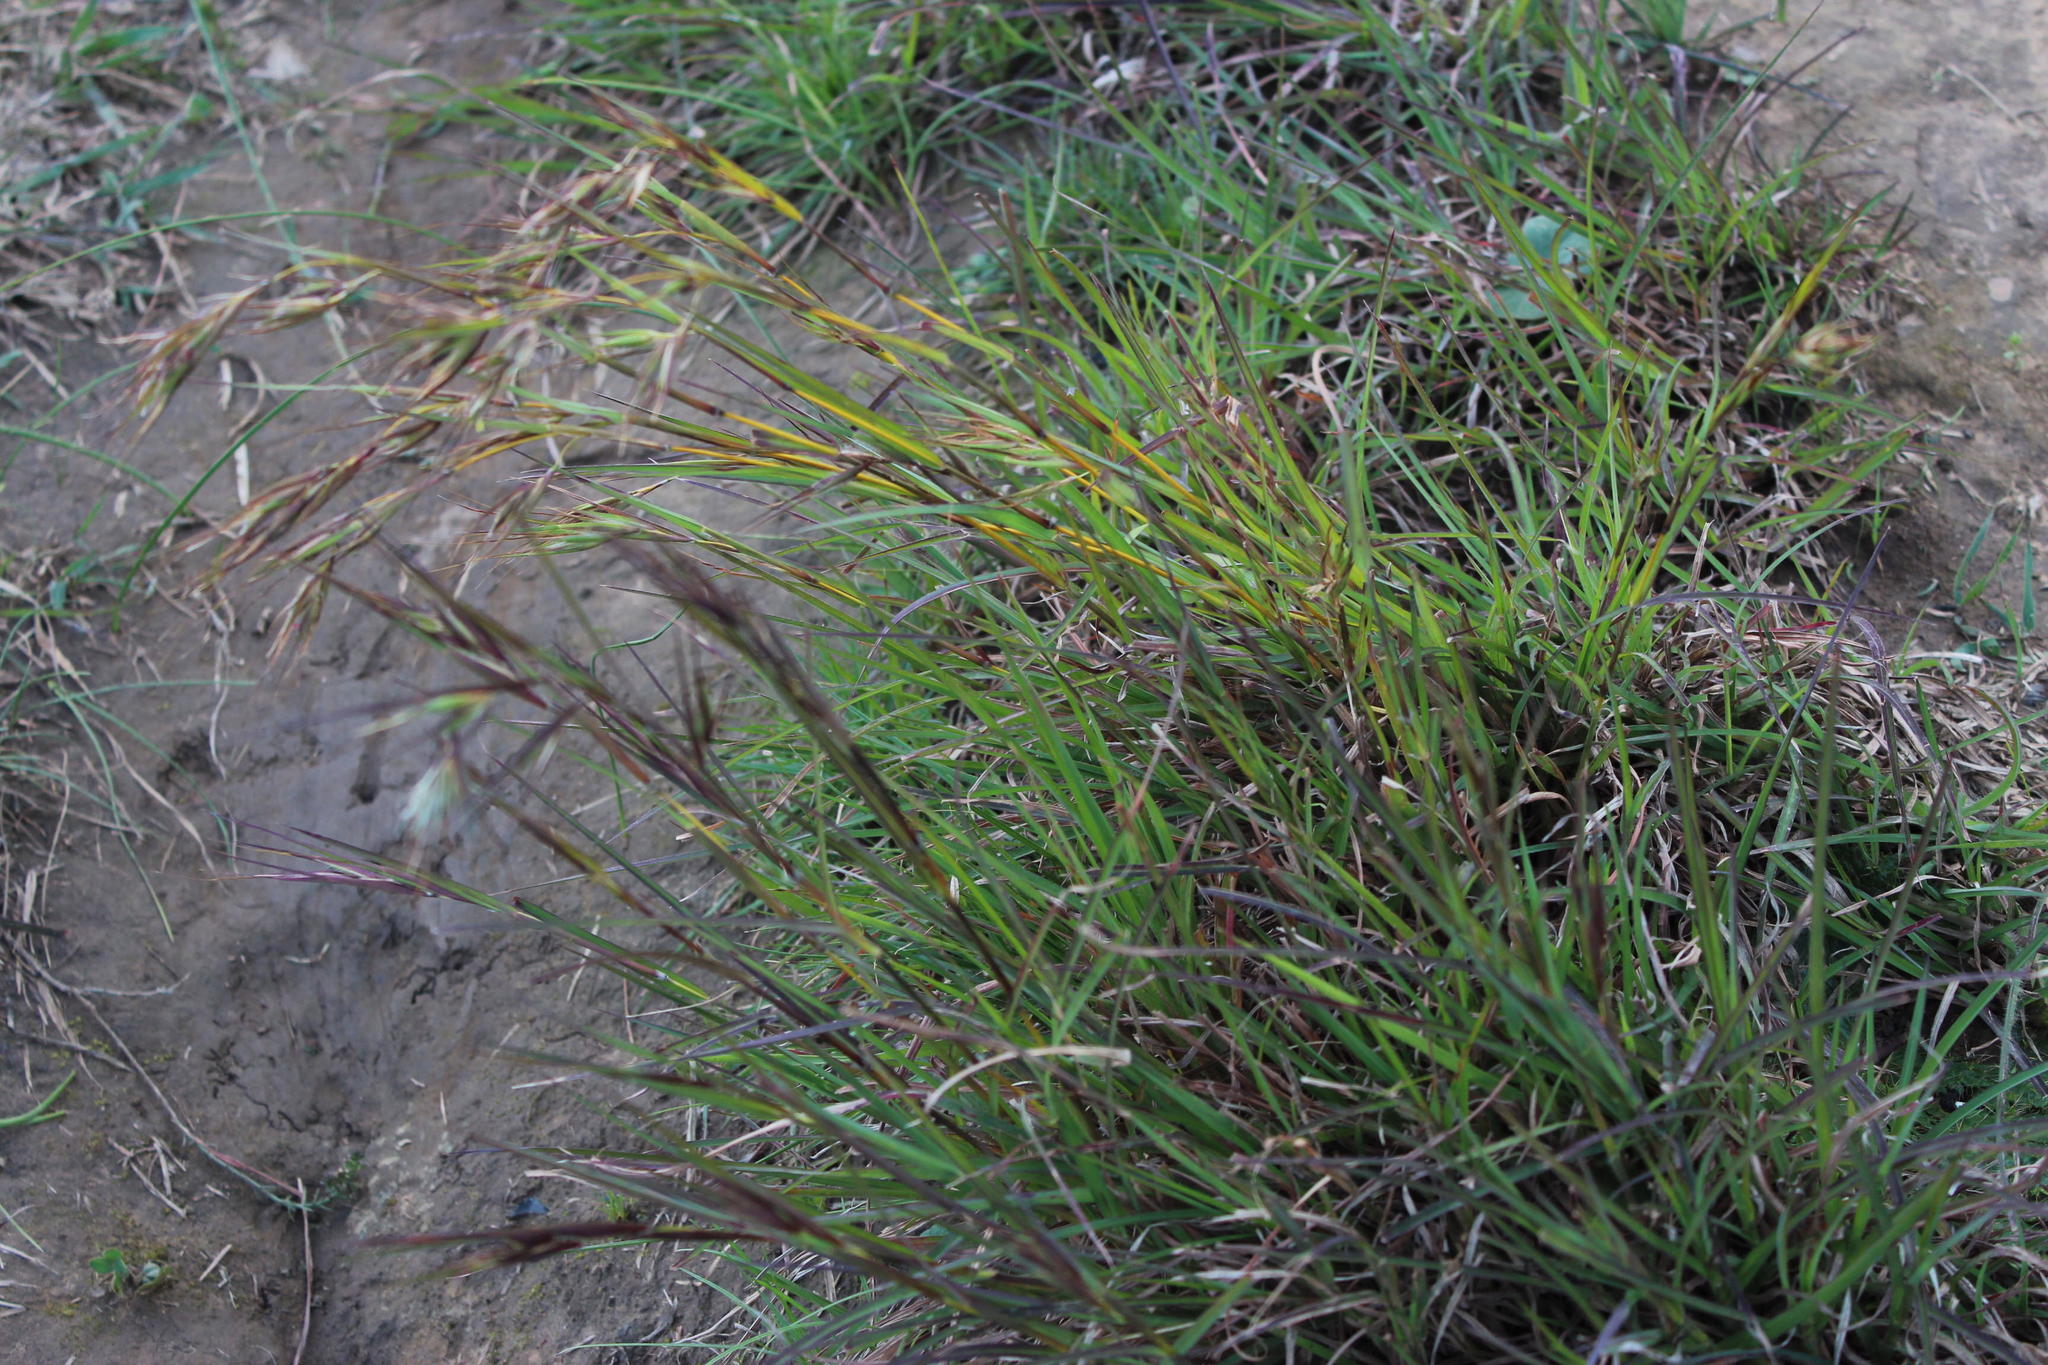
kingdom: Plantae
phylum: Tracheophyta
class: Liliopsida
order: Poales
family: Poaceae
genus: Themeda
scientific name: Themeda triandra
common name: Kangaroo grass
